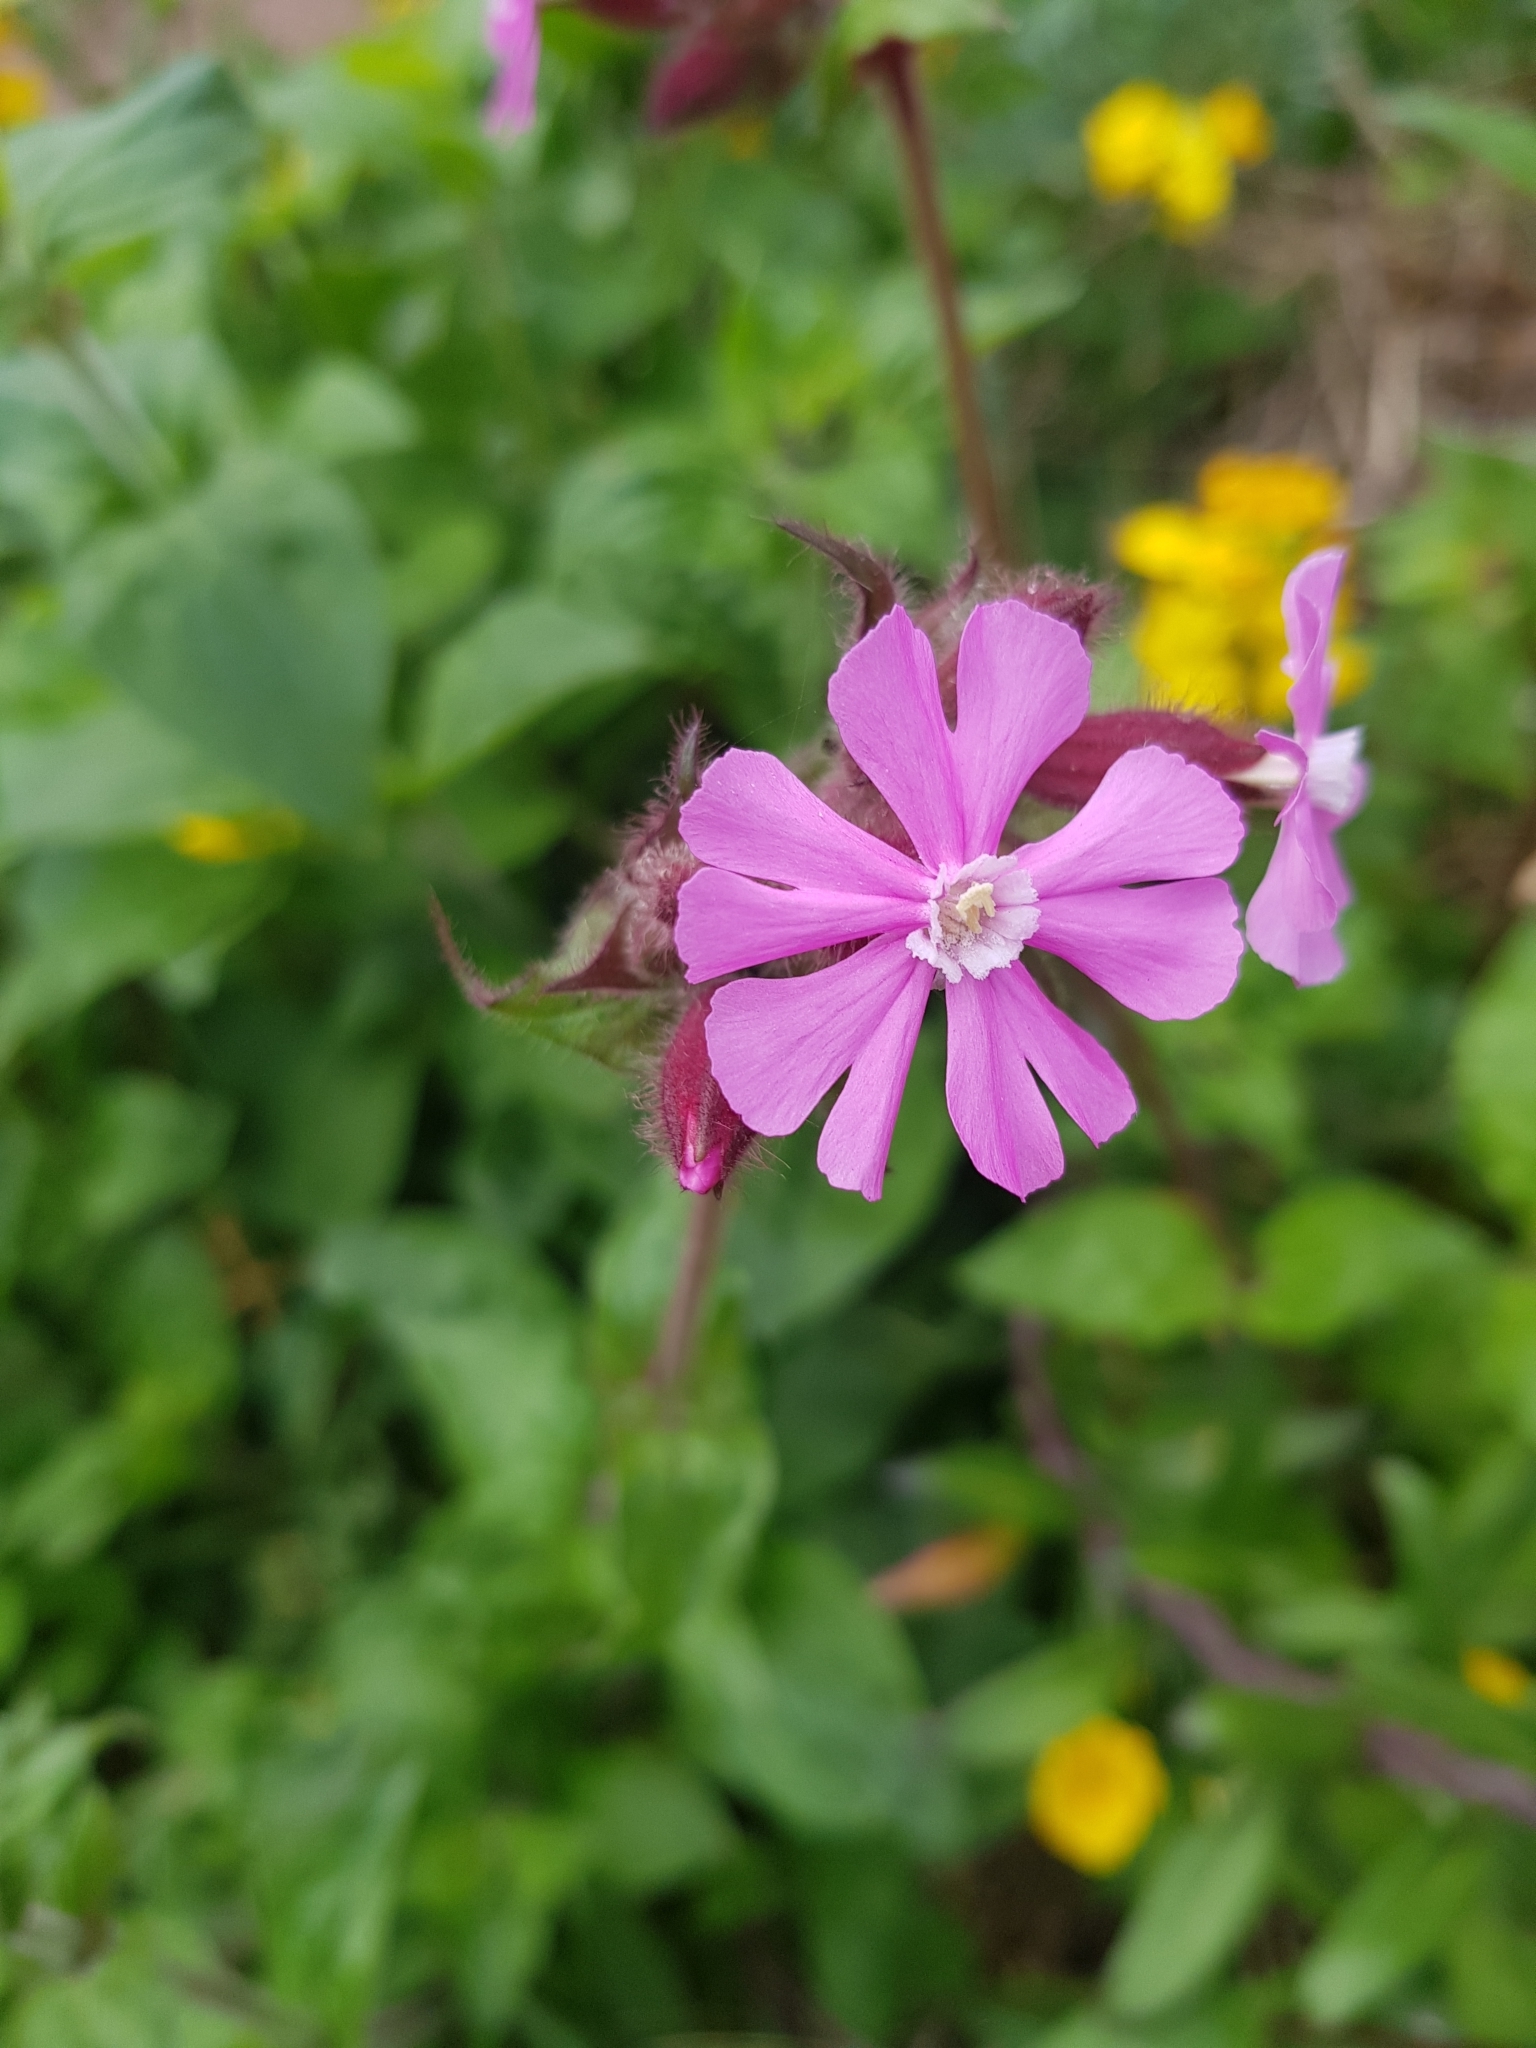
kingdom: Plantae
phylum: Tracheophyta
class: Magnoliopsida
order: Caryophyllales
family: Caryophyllaceae
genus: Silene
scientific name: Silene dioica
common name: Red campion
